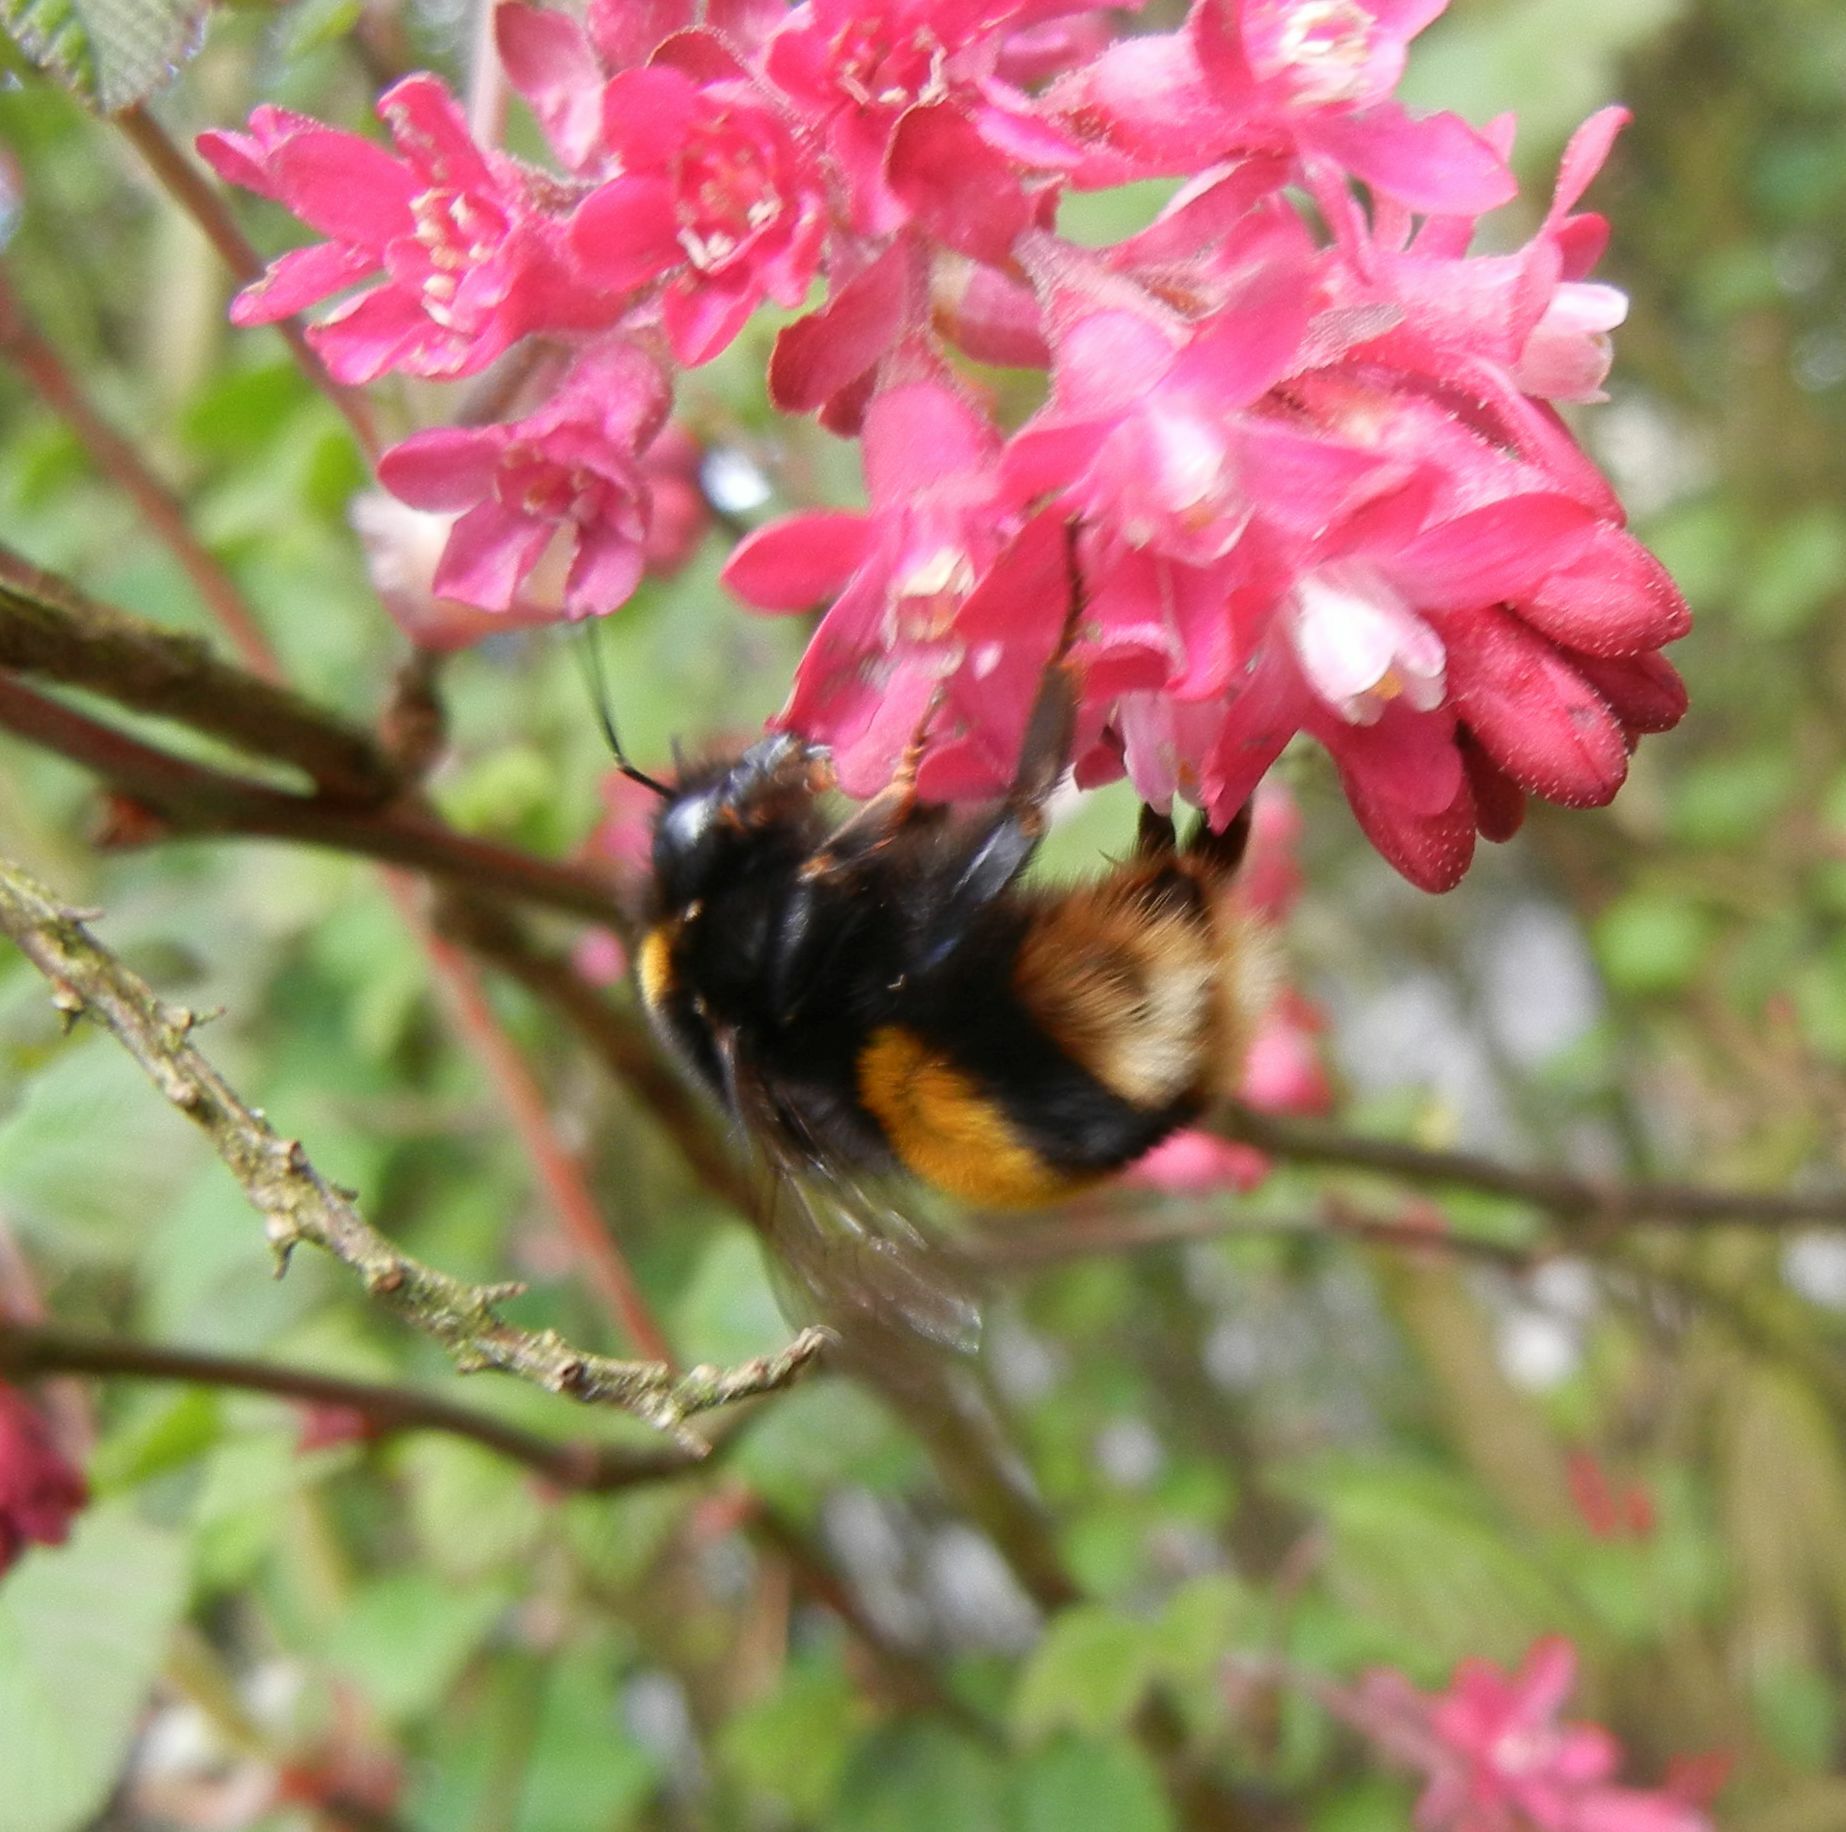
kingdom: Animalia
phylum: Arthropoda
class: Insecta
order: Hymenoptera
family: Apidae
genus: Bombus
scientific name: Bombus terrestris
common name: Buff-tailed bumblebee
